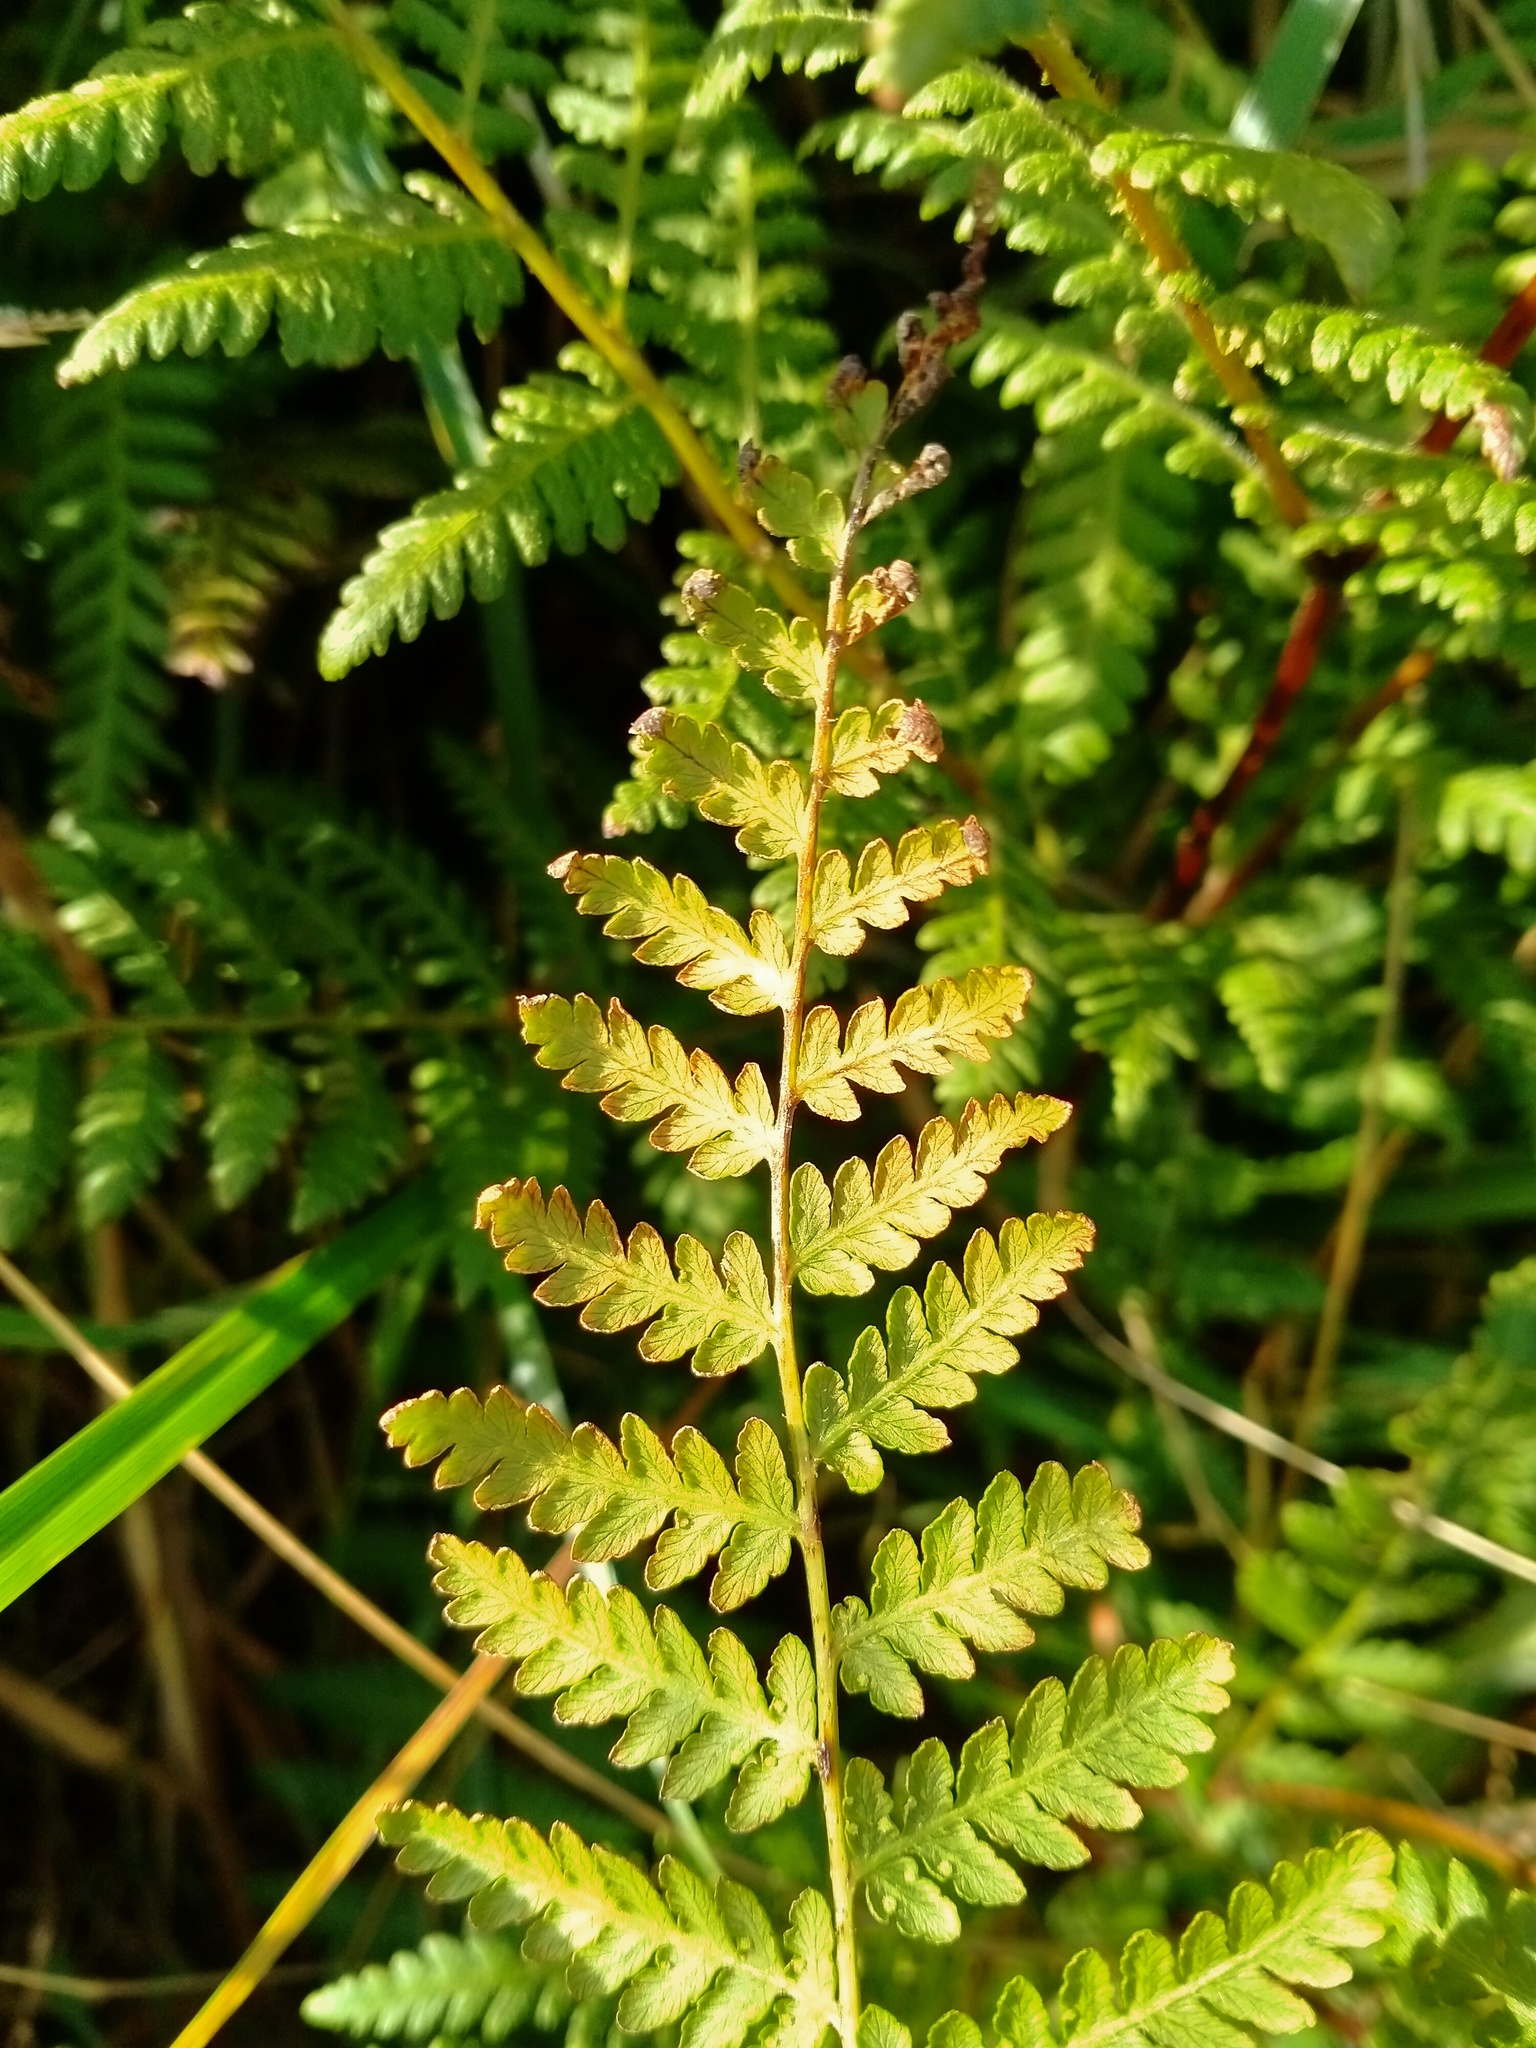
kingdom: Plantae
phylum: Tracheophyta
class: Polypodiopsida
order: Polypodiales
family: Dennstaedtiaceae
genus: Hypolepis
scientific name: Hypolepis ambigua
